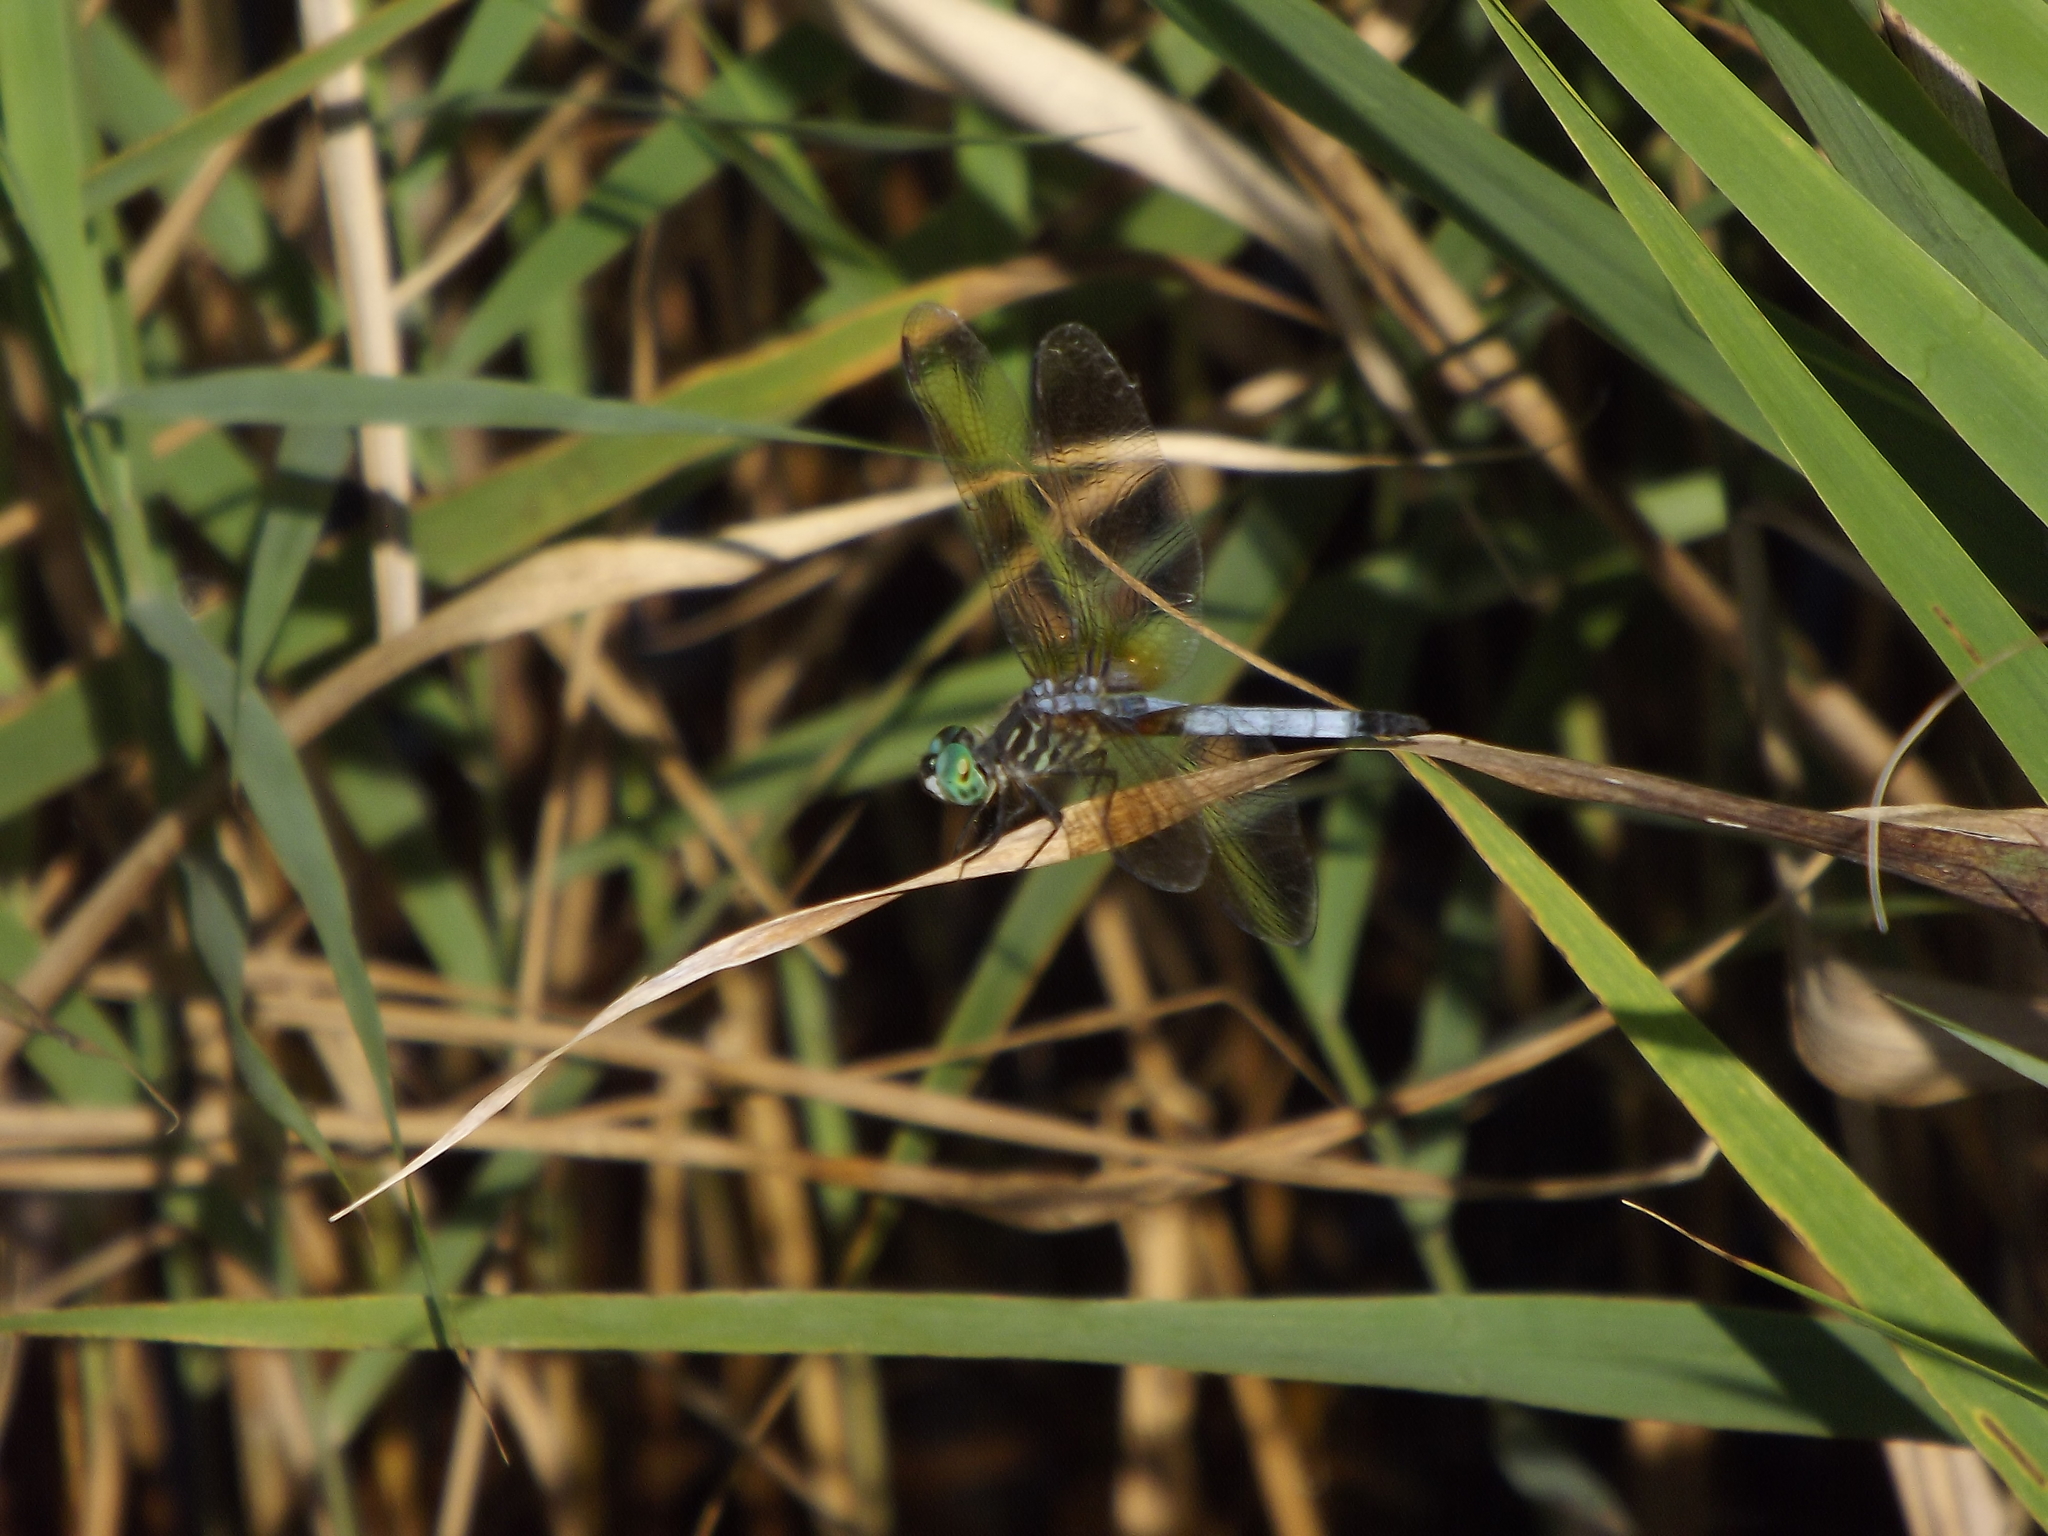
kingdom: Animalia
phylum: Arthropoda
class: Insecta
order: Odonata
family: Libellulidae
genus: Pachydiplax
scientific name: Pachydiplax longipennis
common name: Blue dasher
